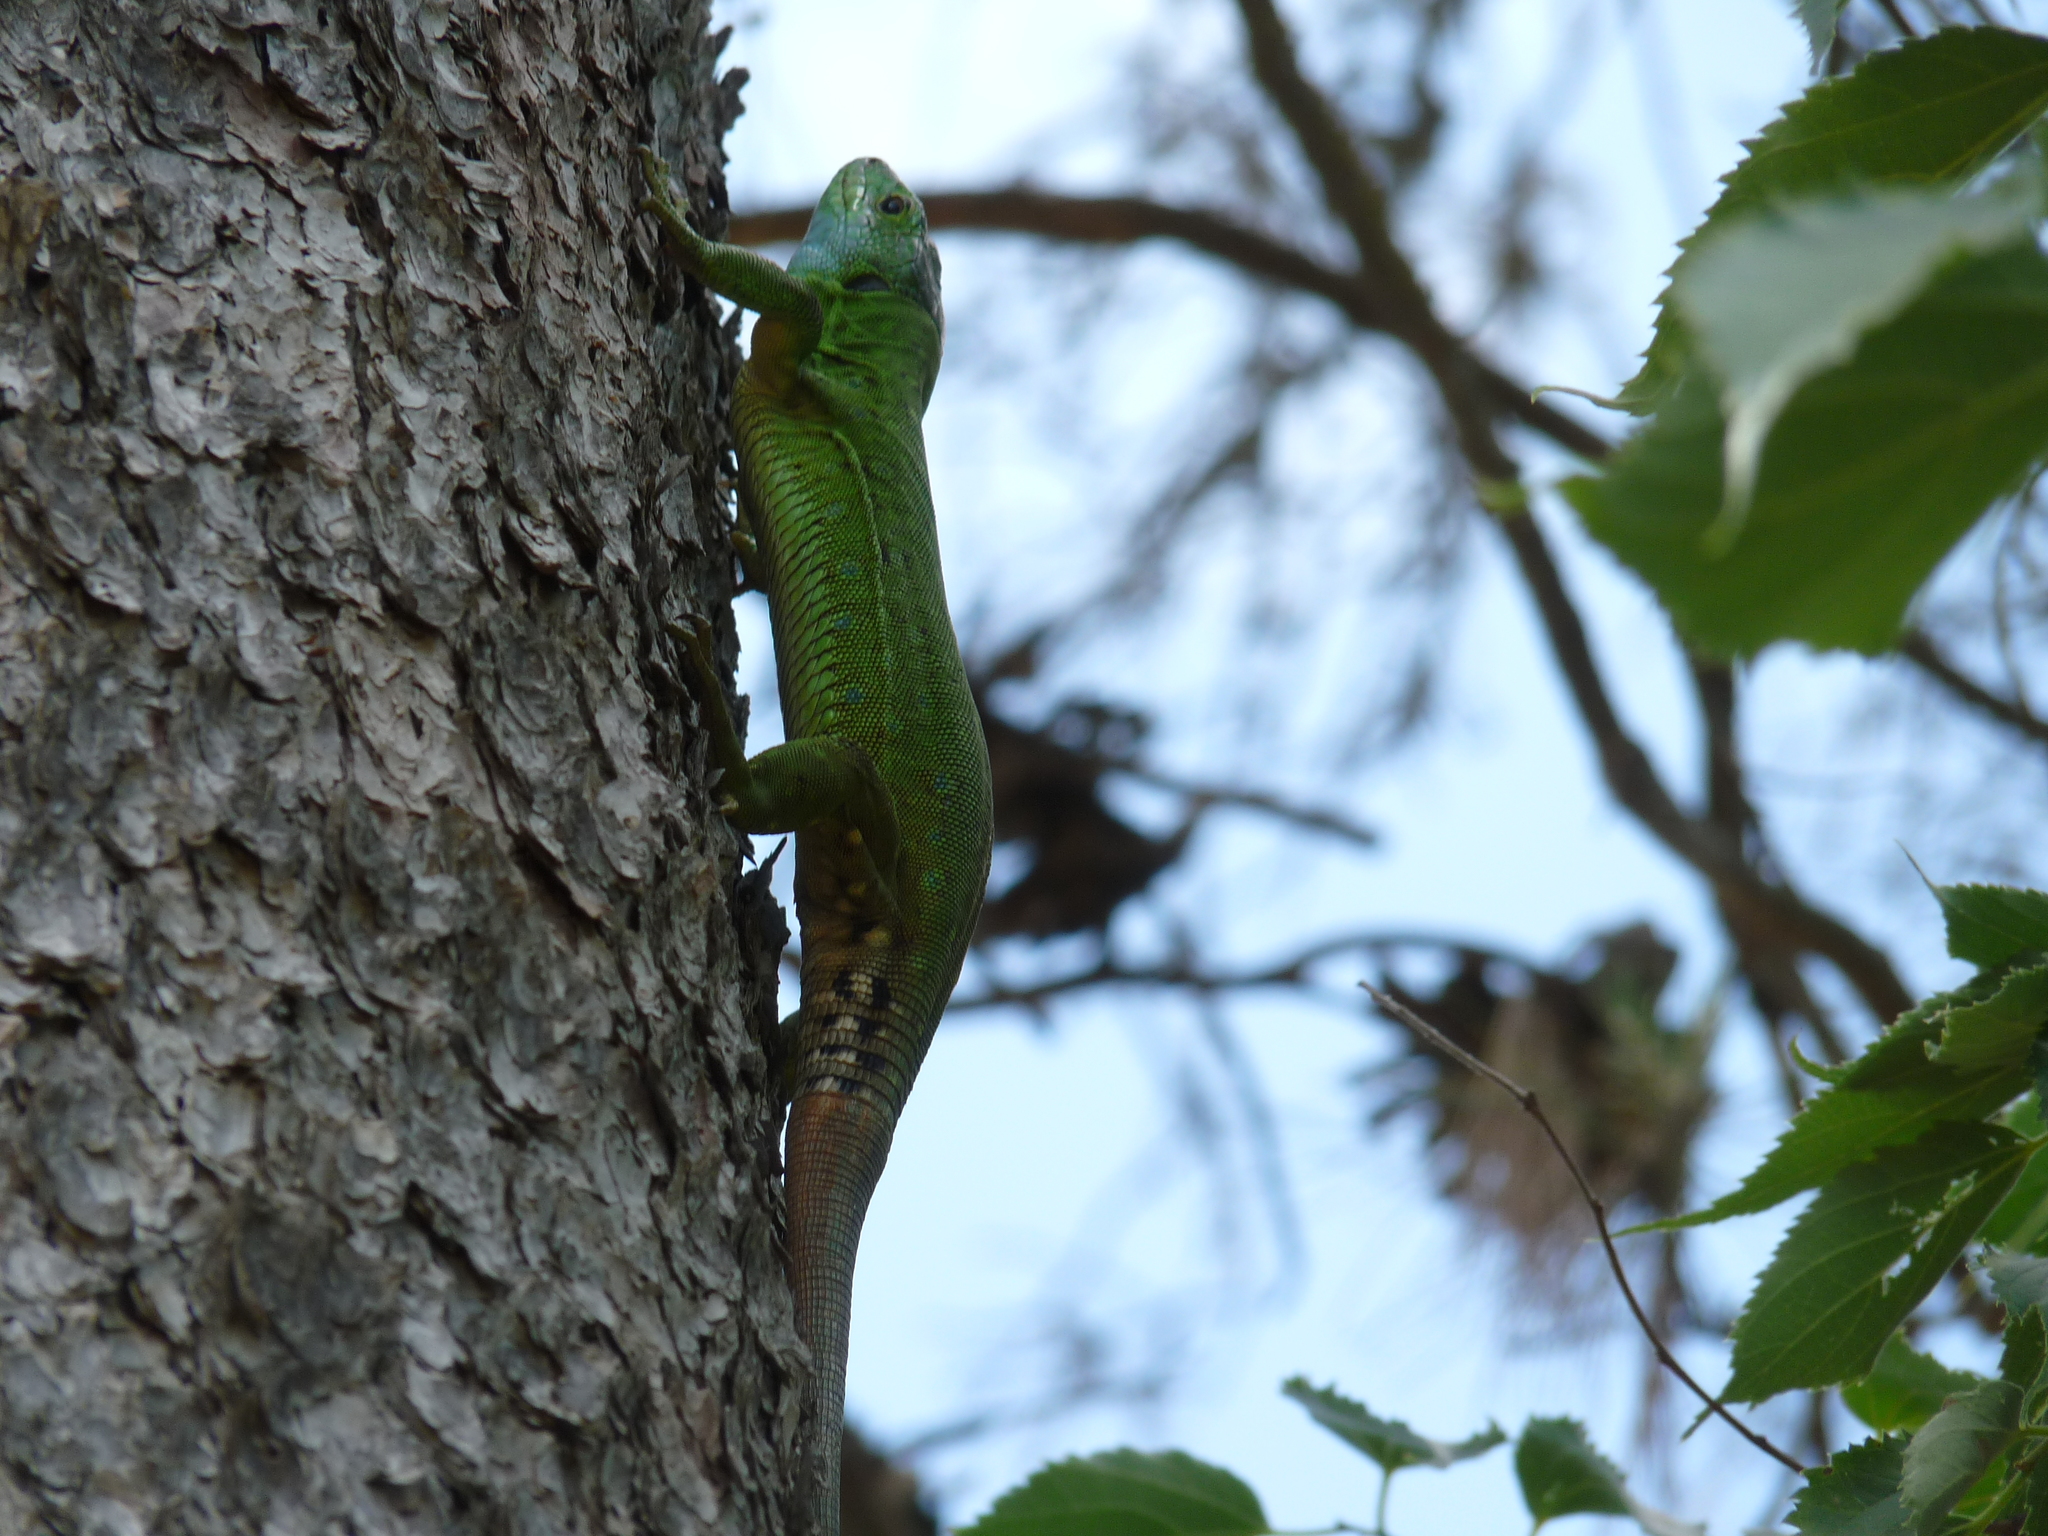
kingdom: Animalia
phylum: Chordata
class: Squamata
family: Lacertidae
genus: Timon
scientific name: Timon pater
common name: North african ocellated lizard
